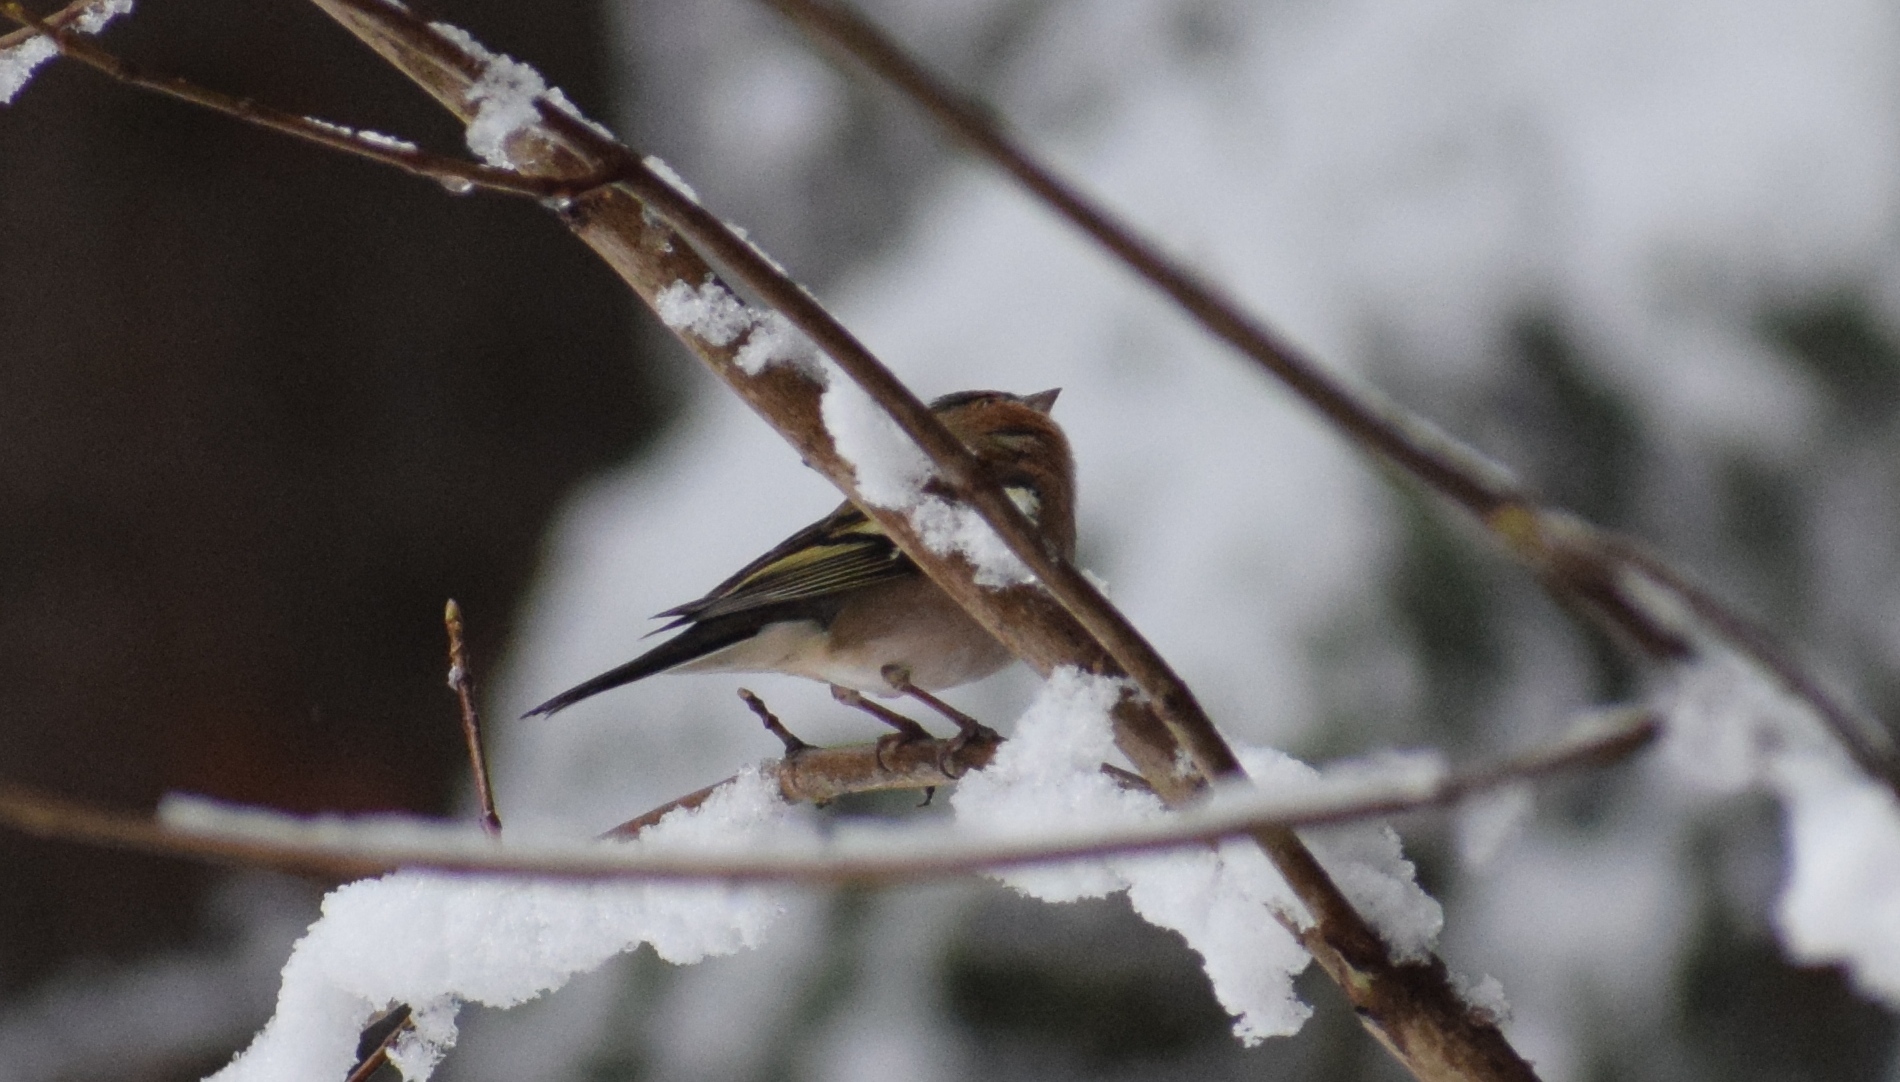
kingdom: Animalia
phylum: Chordata
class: Aves
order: Passeriformes
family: Fringillidae
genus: Fringilla
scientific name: Fringilla coelebs
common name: Common chaffinch
